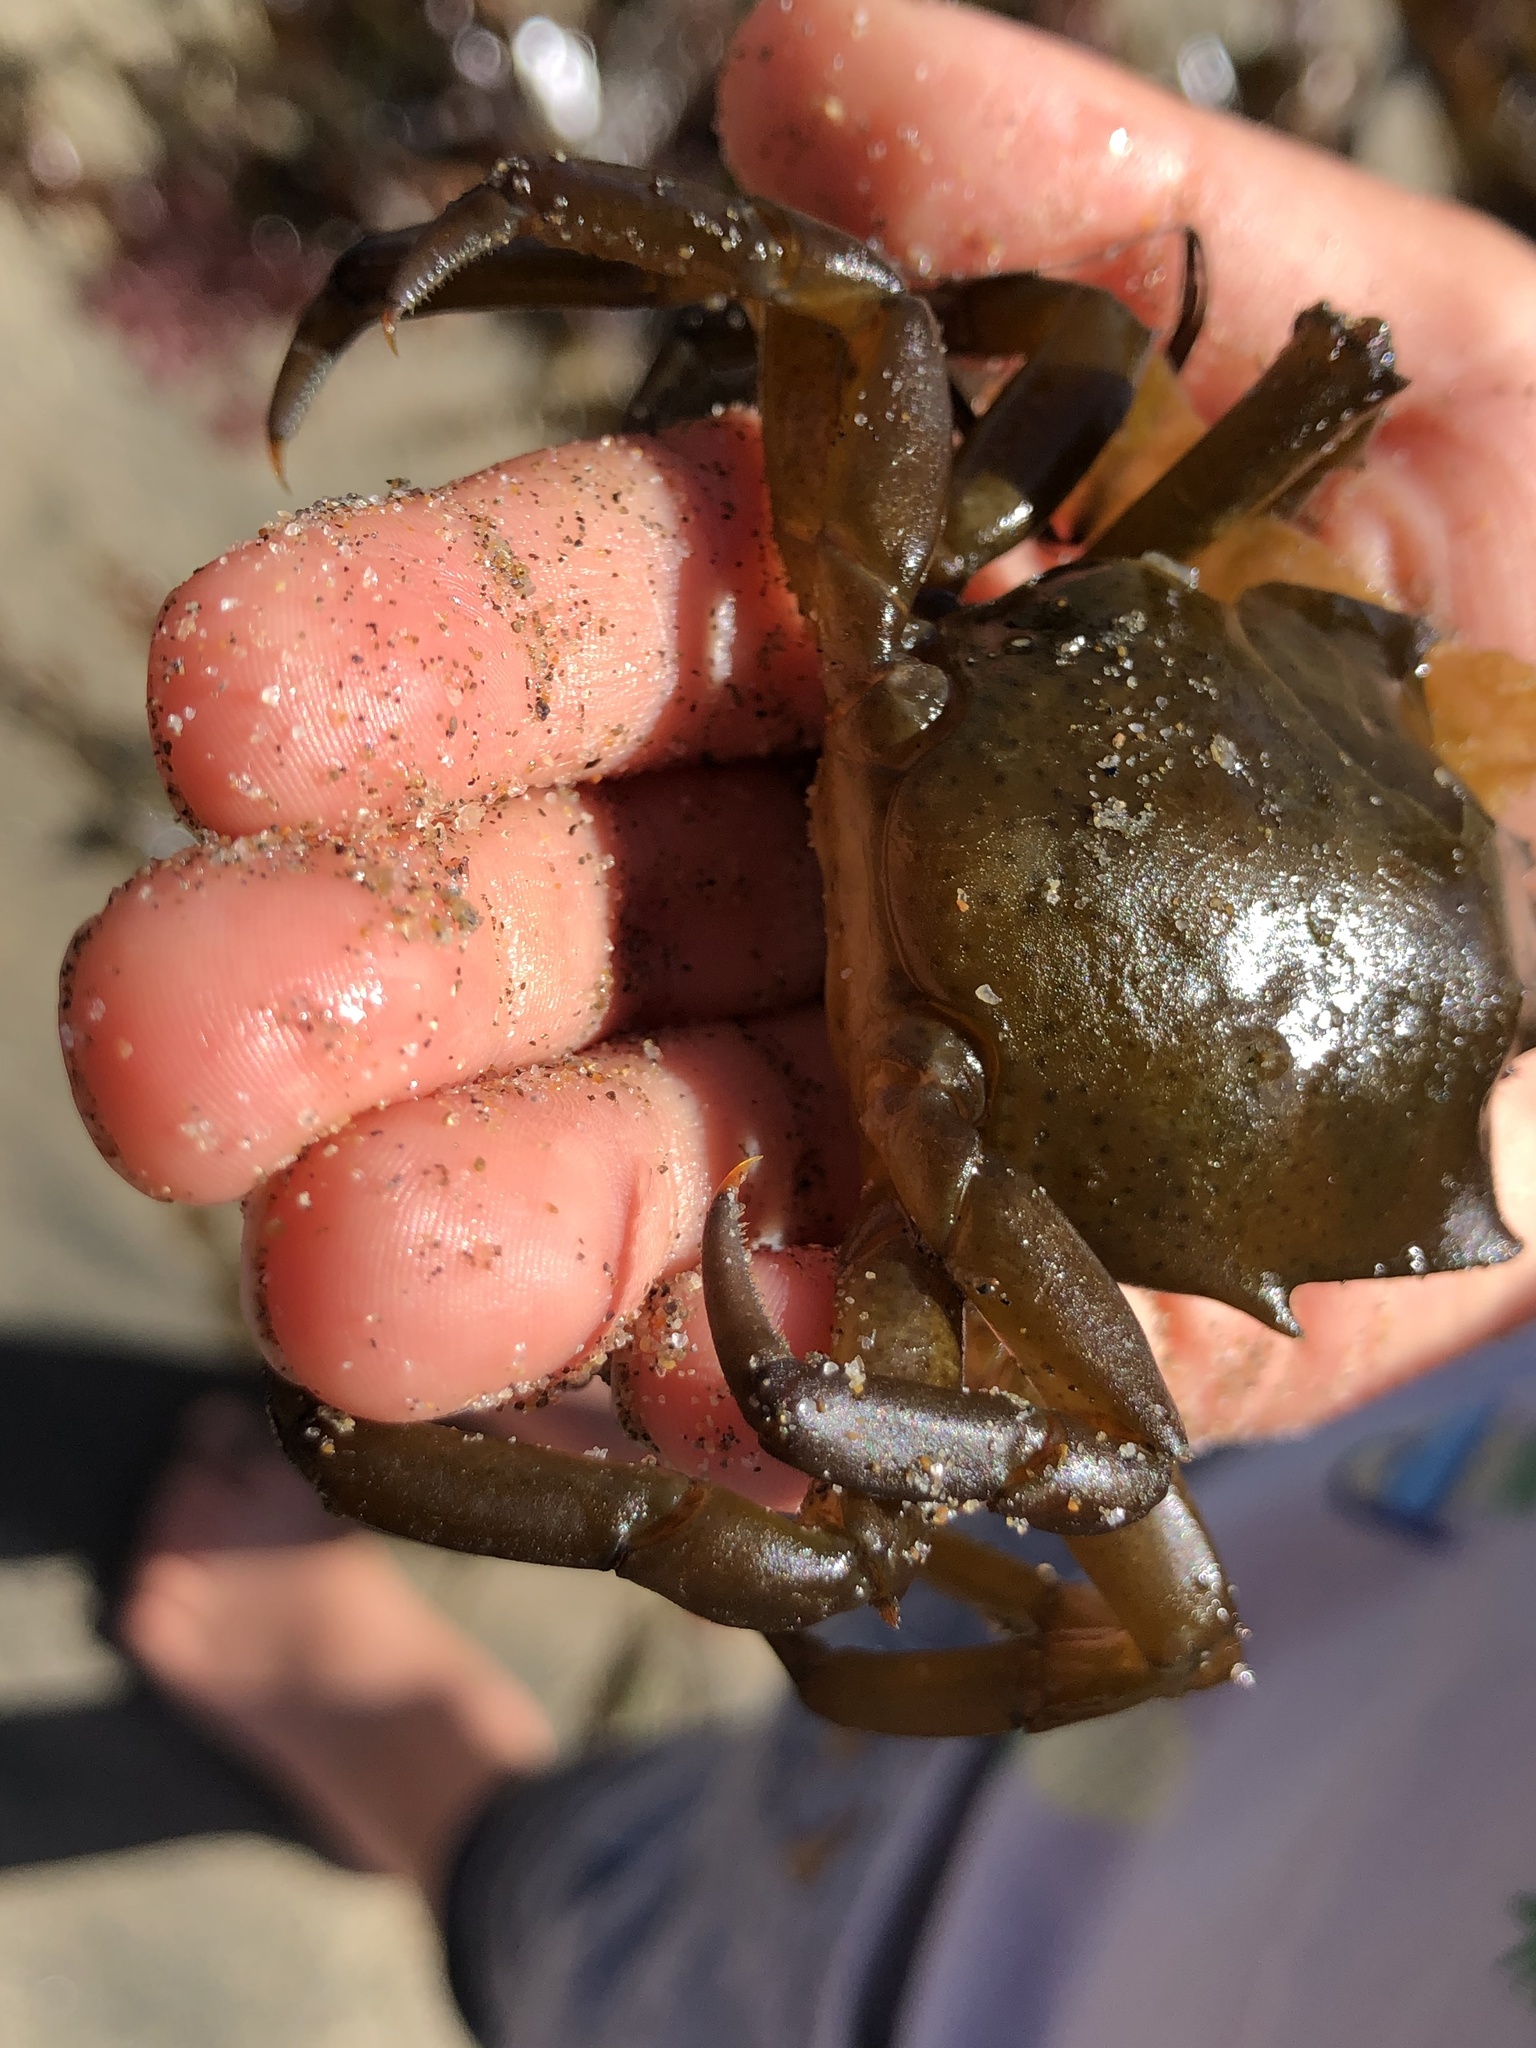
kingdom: Animalia
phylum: Arthropoda
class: Malacostraca
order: Decapoda
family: Epialtidae
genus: Pugettia
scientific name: Pugettia producta
